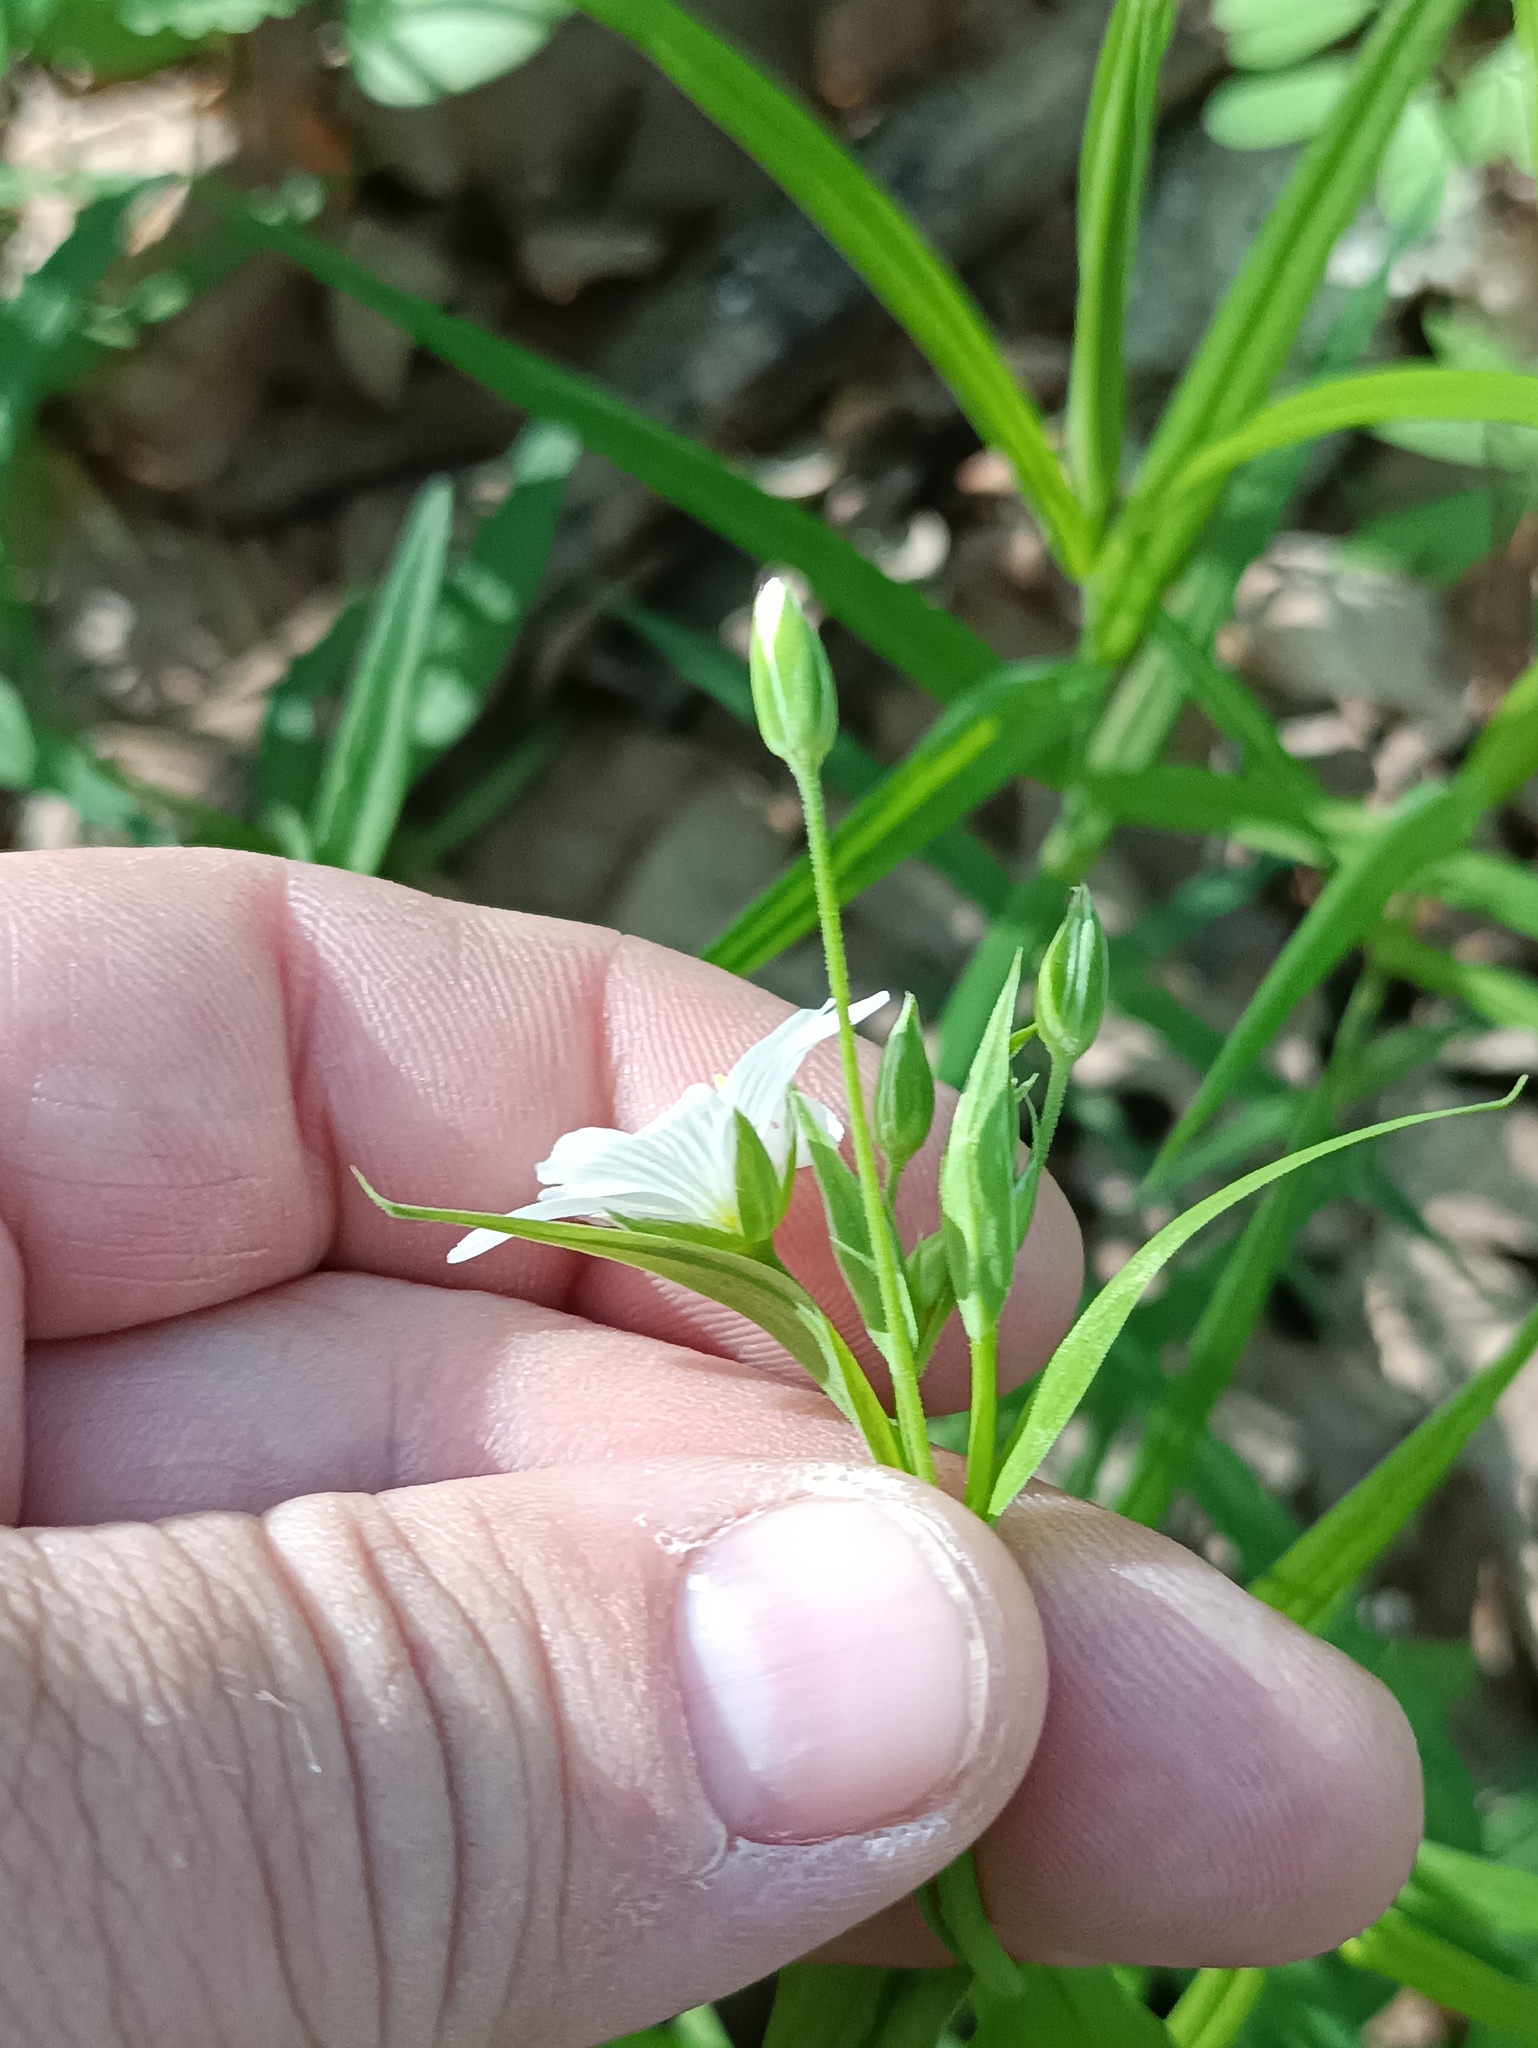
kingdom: Plantae
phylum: Tracheophyta
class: Magnoliopsida
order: Caryophyllales
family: Caryophyllaceae
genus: Rabelera
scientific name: Rabelera holostea
